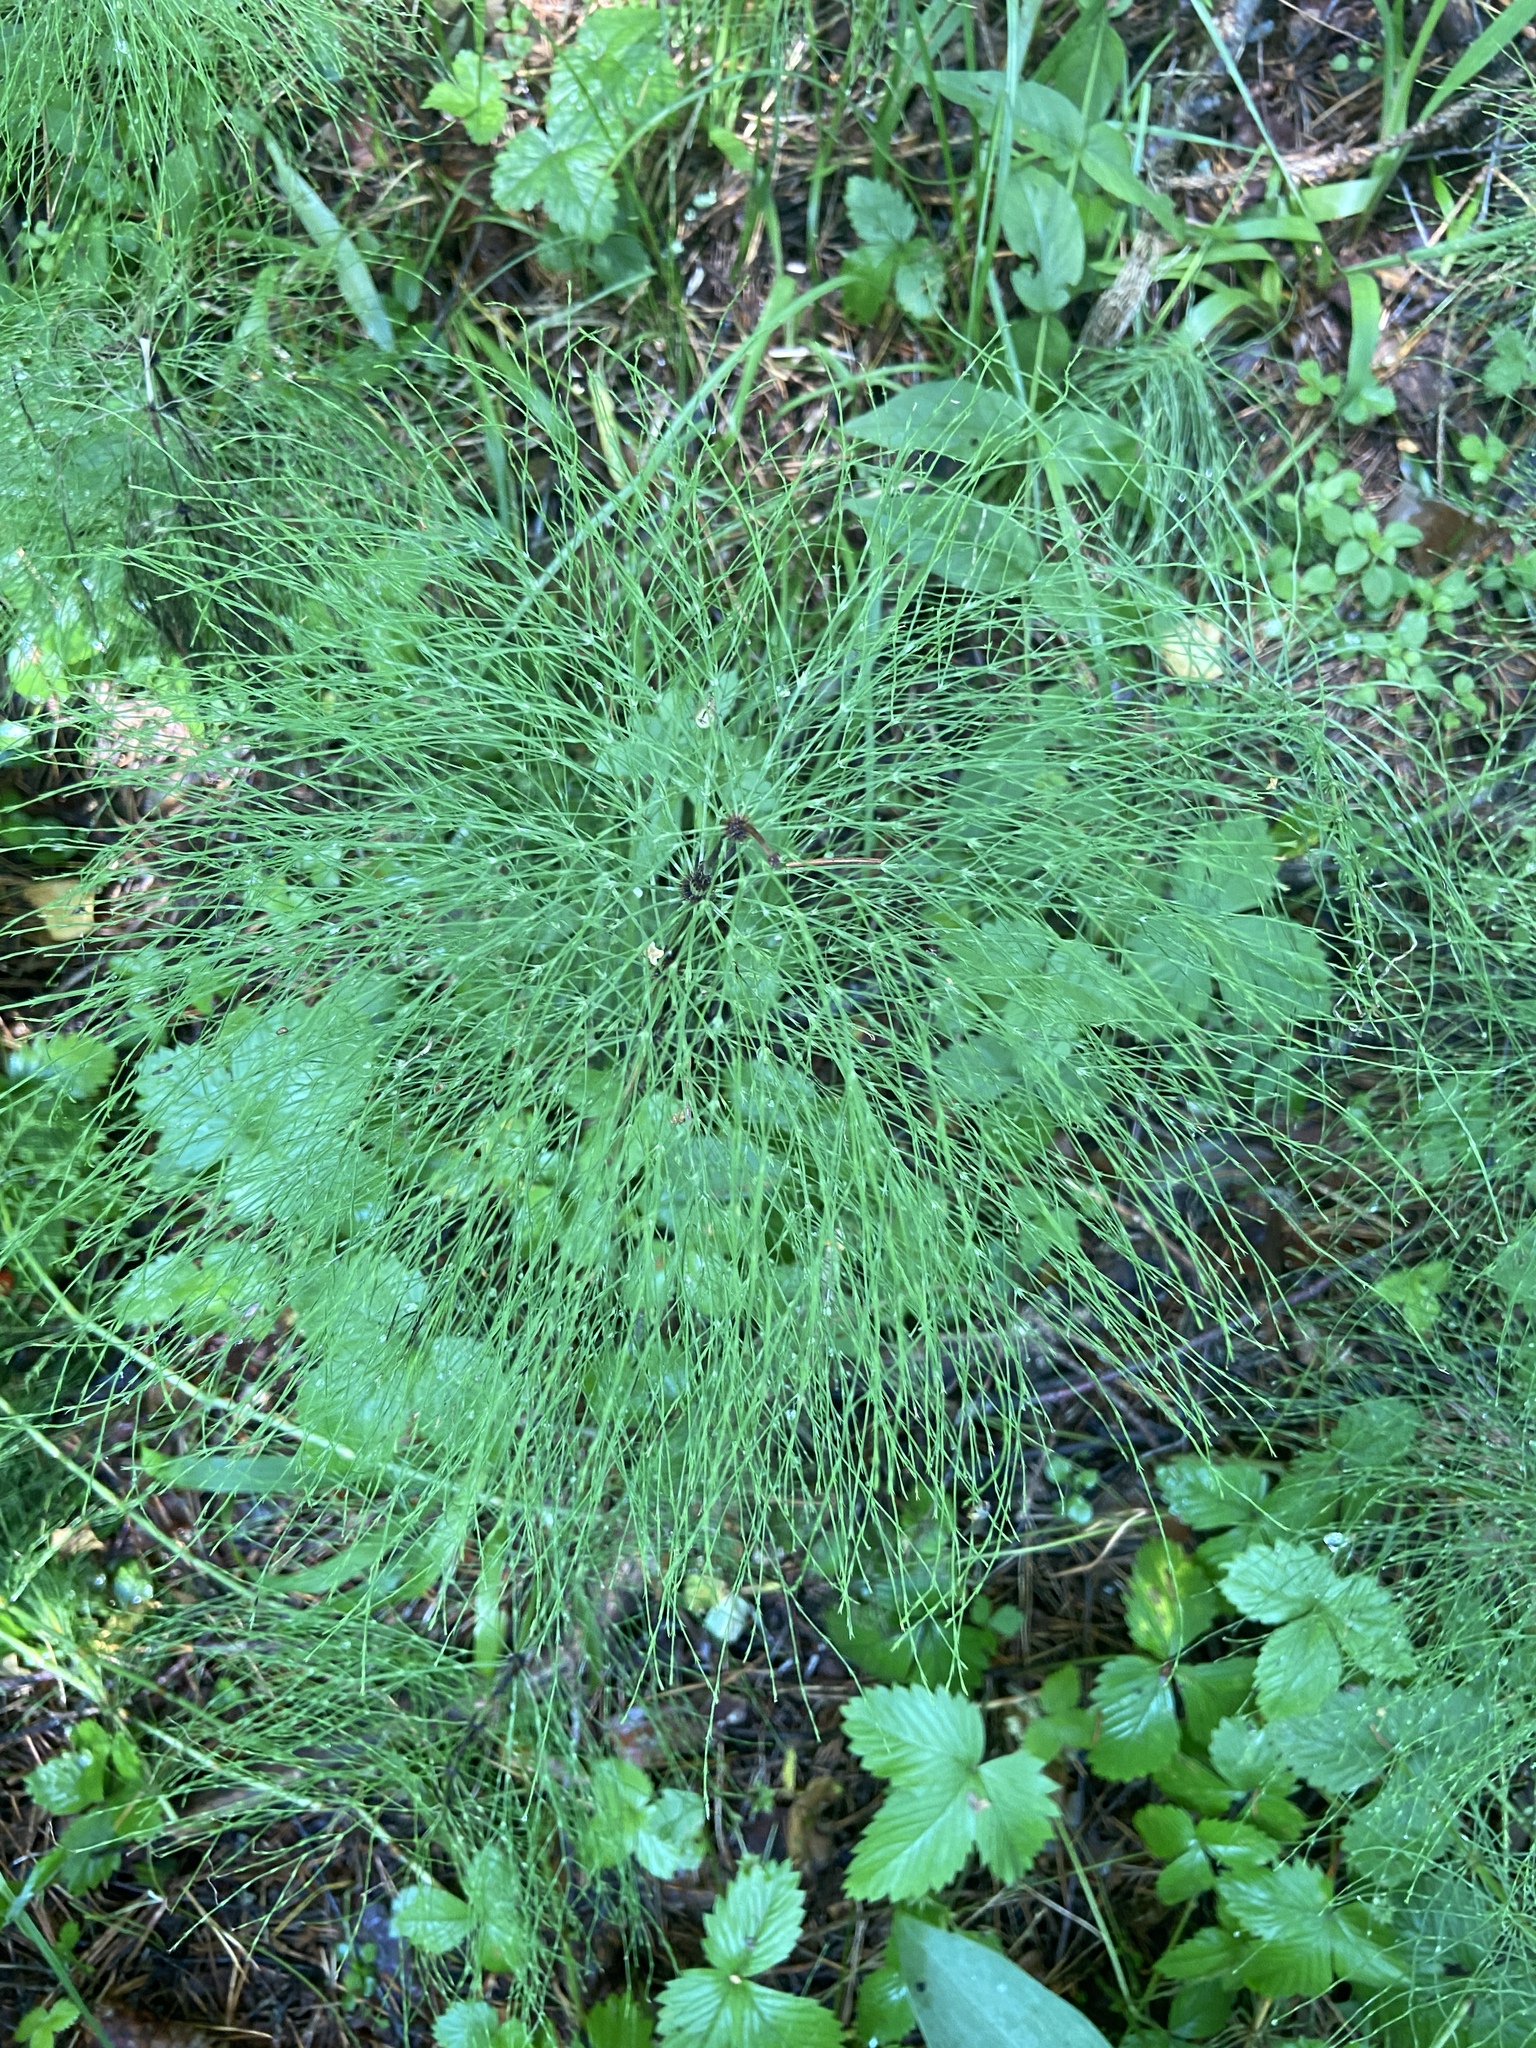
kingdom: Plantae
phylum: Tracheophyta
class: Polypodiopsida
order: Equisetales
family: Equisetaceae
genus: Equisetum
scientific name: Equisetum sylvaticum
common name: Wood horsetail
